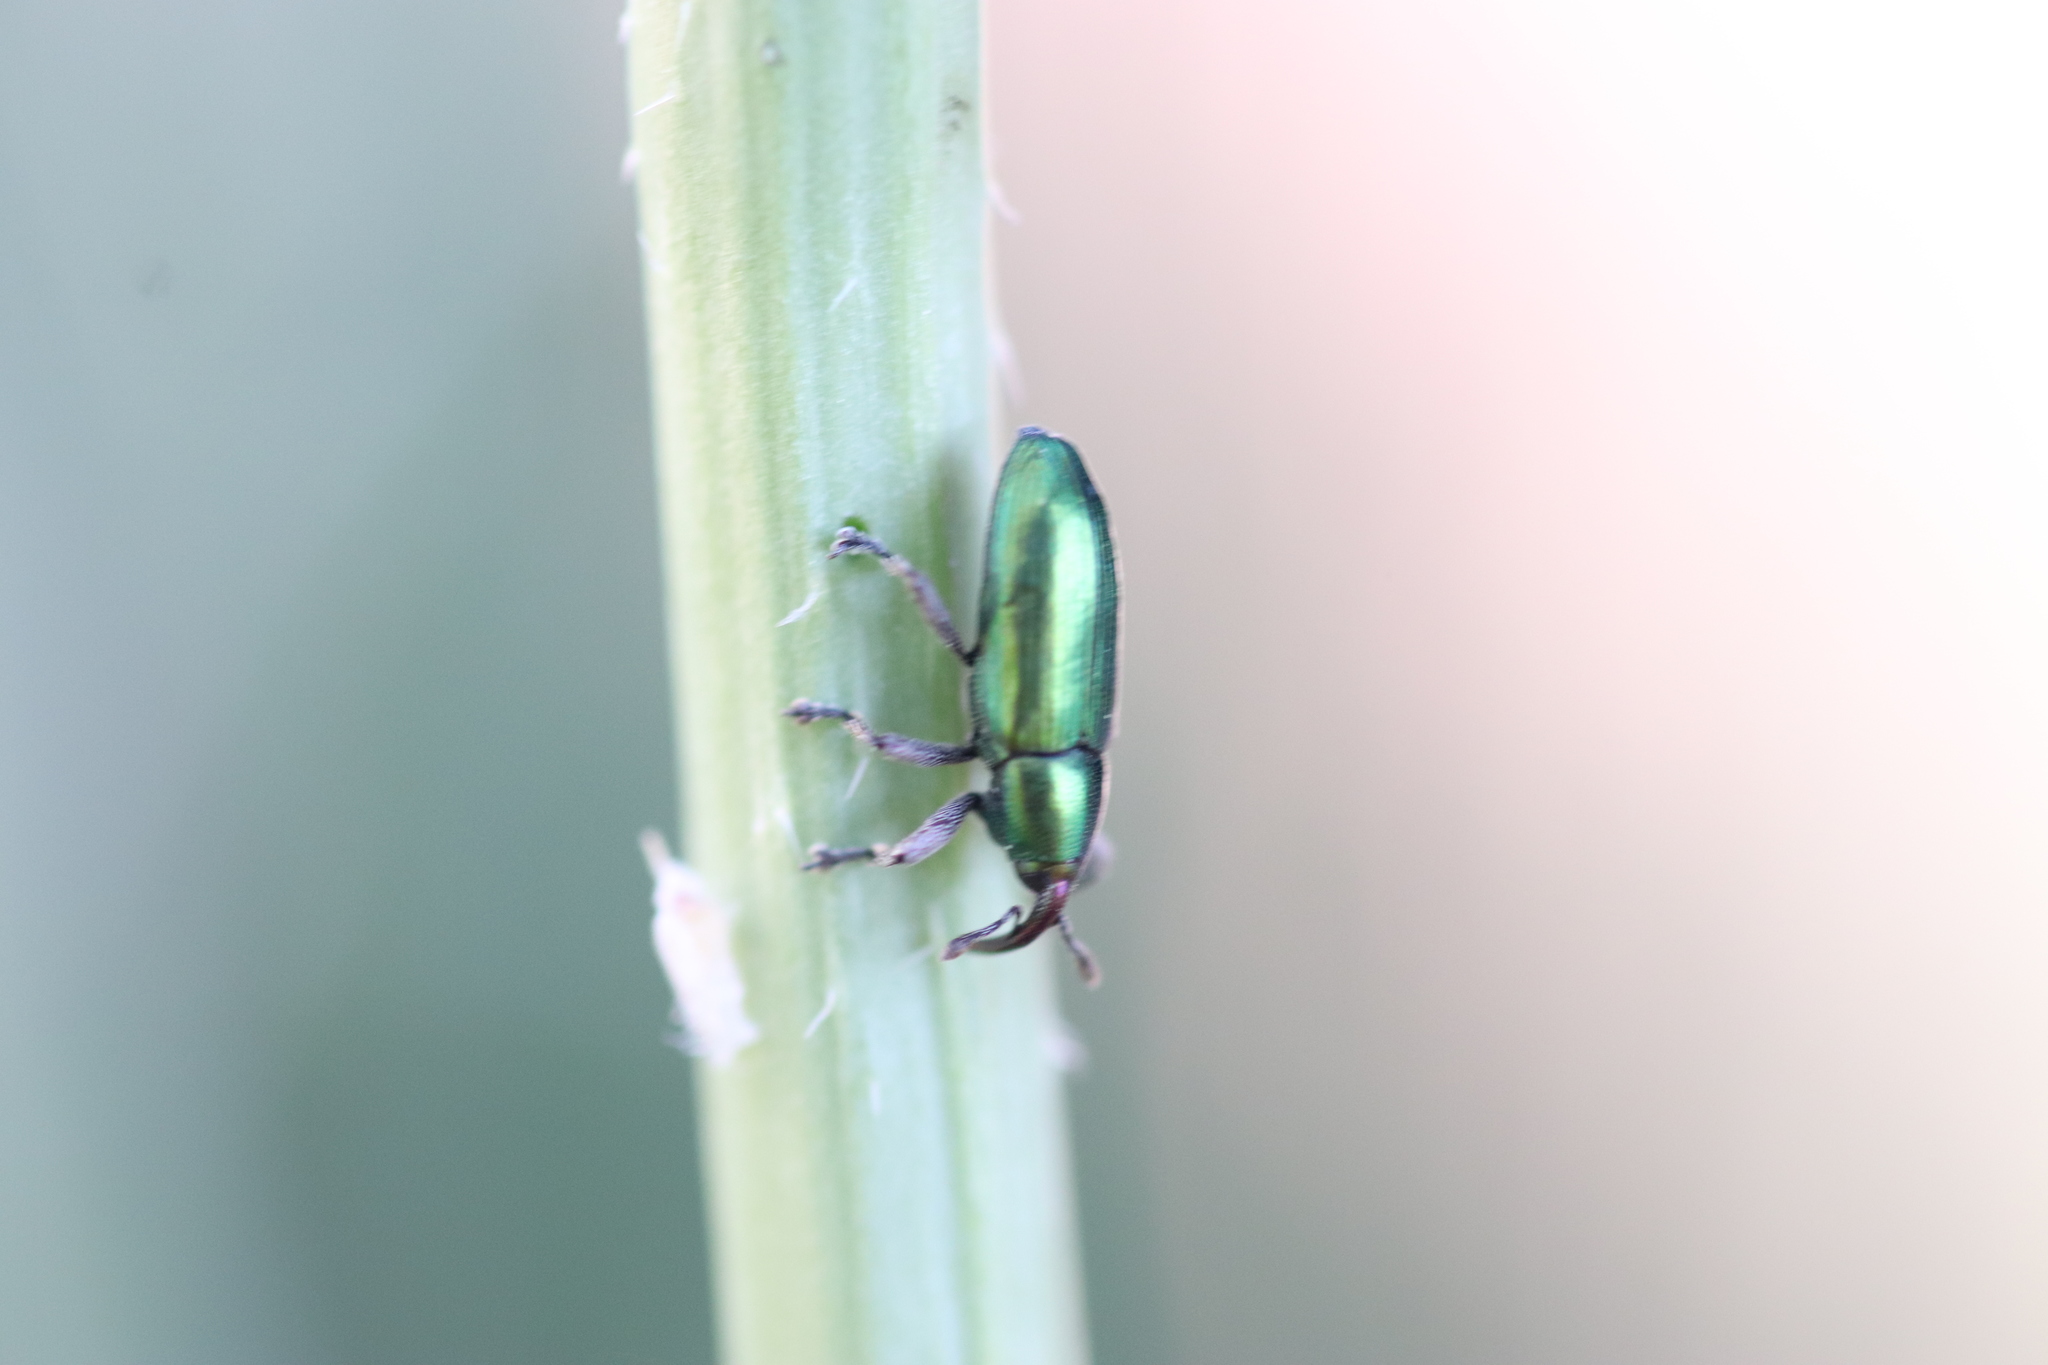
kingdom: Animalia
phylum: Arthropoda
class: Insecta
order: Coleoptera
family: Curculionidae
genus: Aulacobaris
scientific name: Aulacobaris cuprirostris
